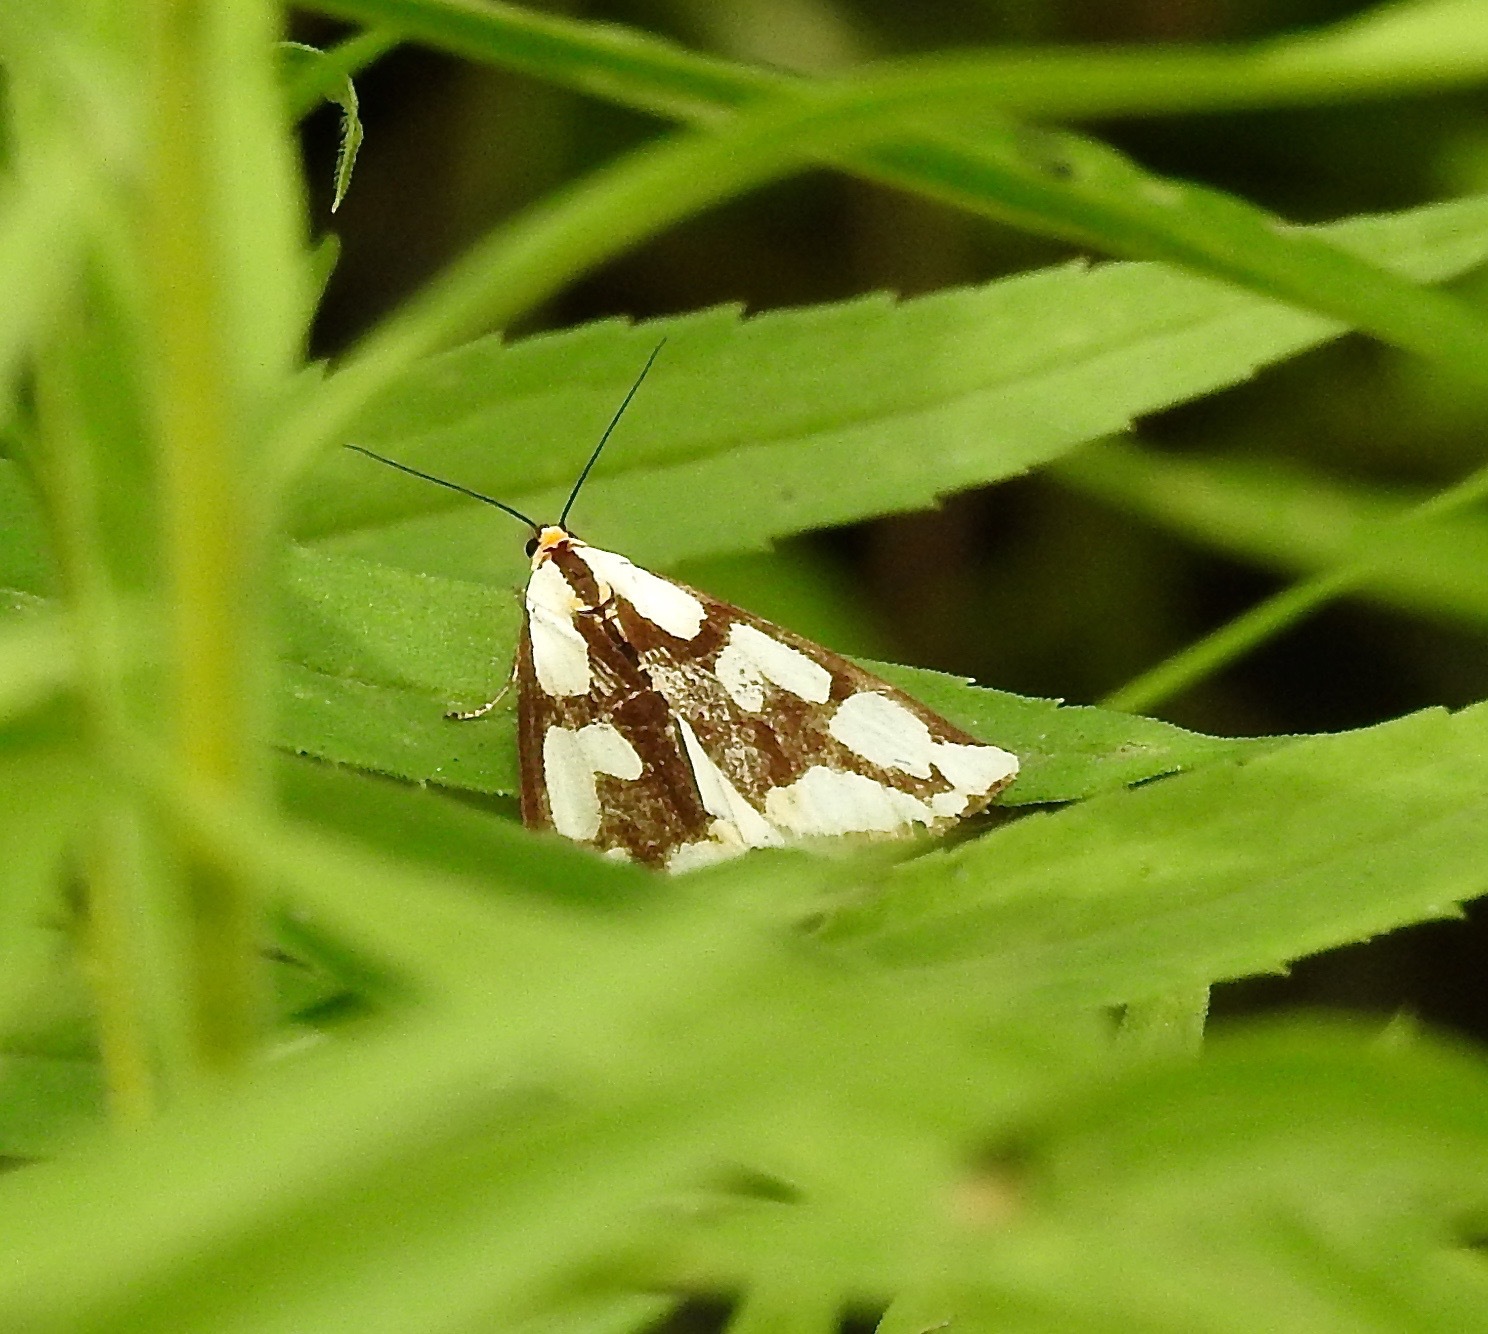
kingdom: Animalia
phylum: Arthropoda
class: Insecta
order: Lepidoptera
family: Erebidae
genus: Haploa
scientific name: Haploa confusa
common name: Confused haploa moth
